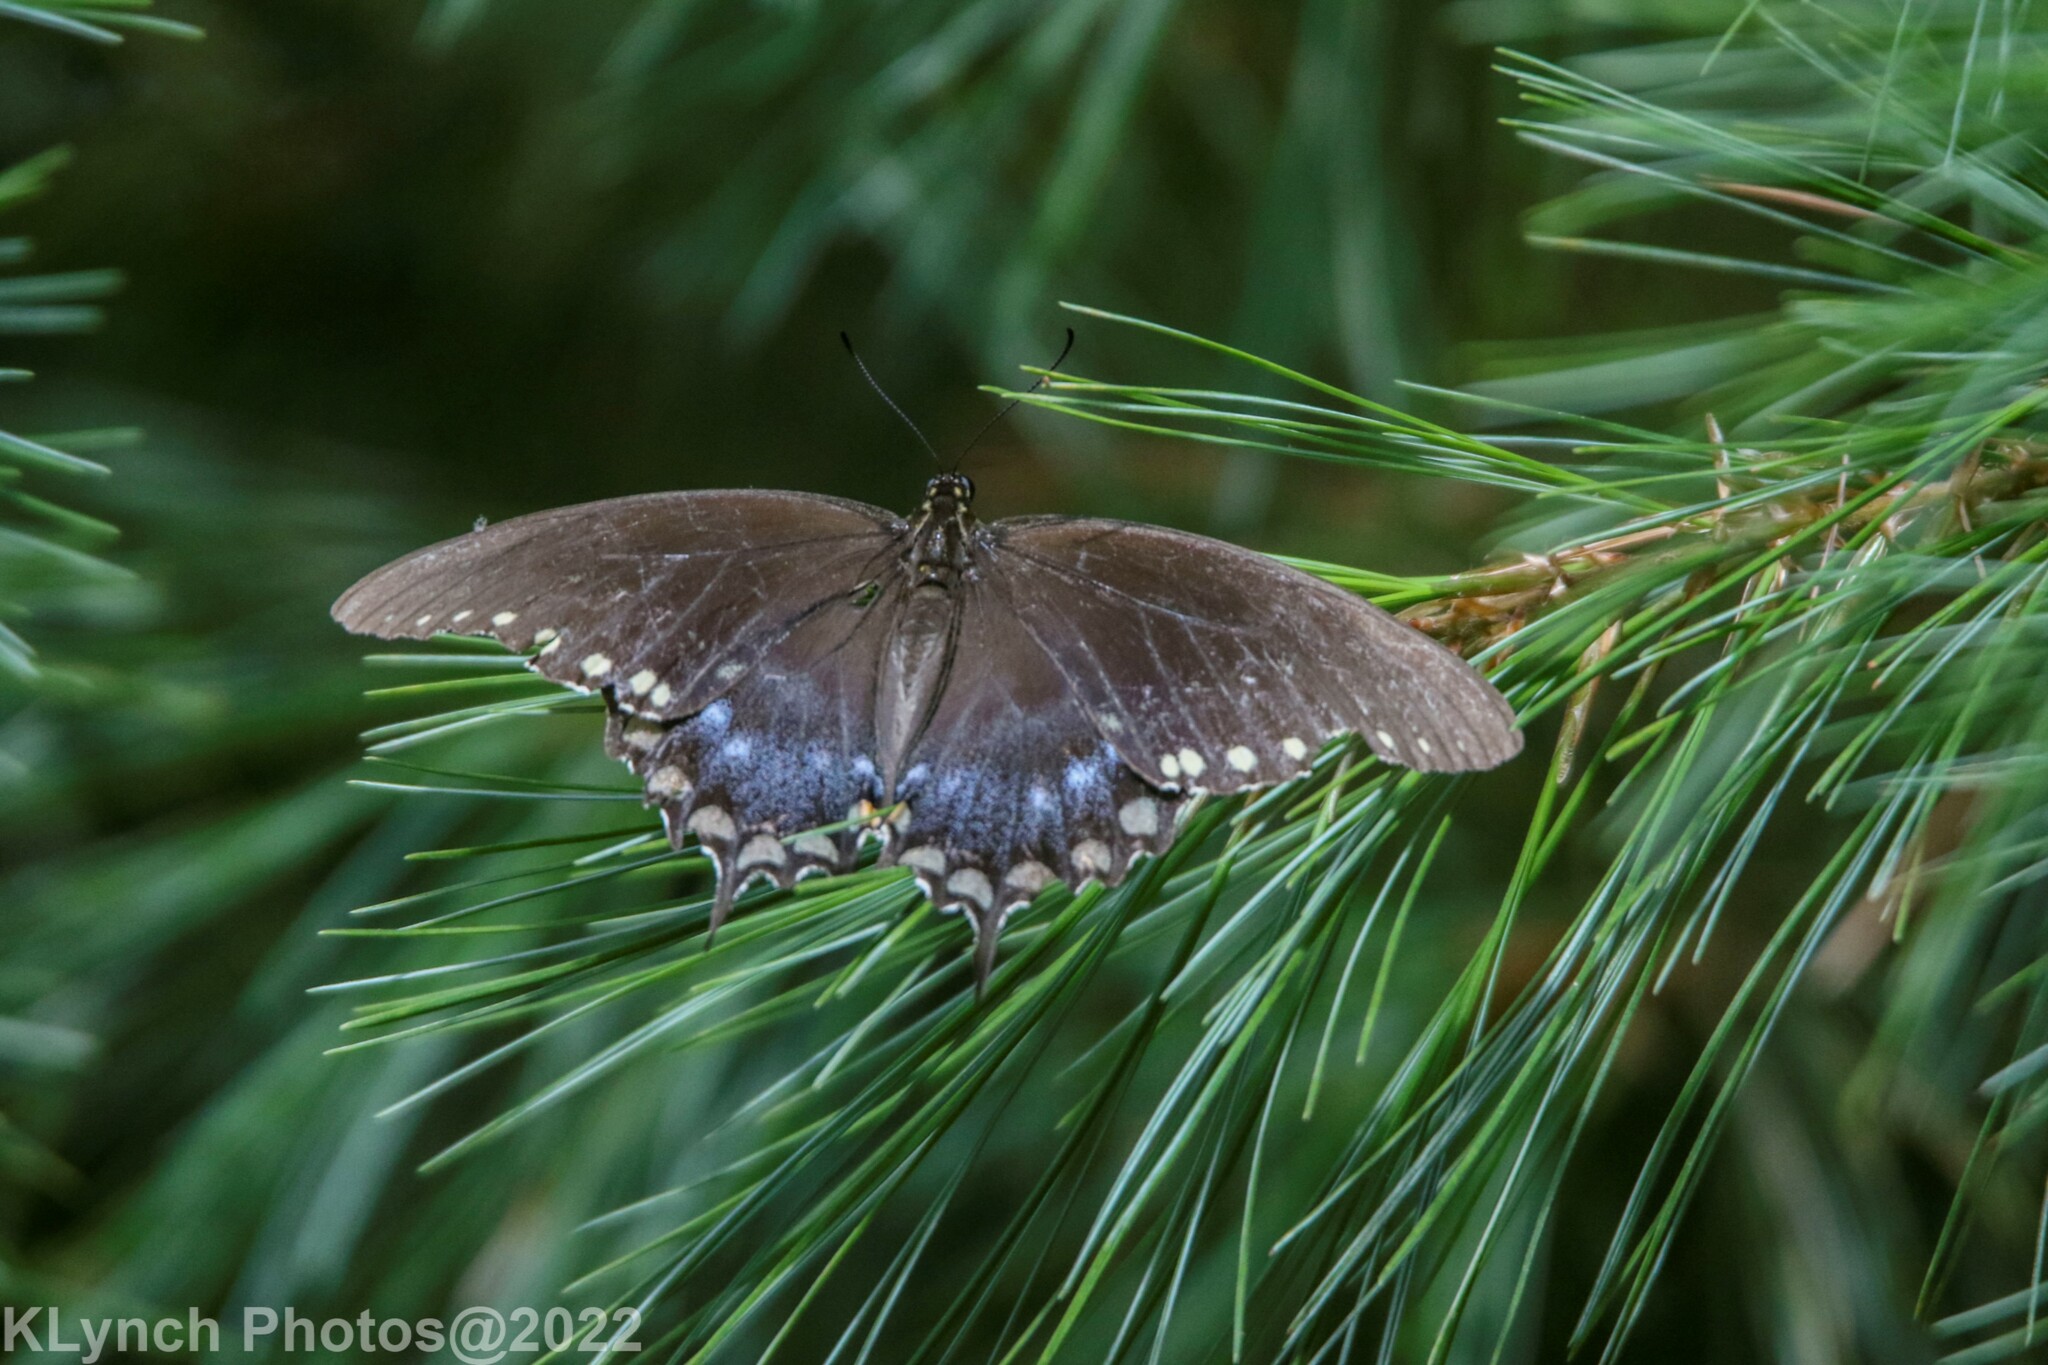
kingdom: Animalia
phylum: Arthropoda
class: Insecta
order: Lepidoptera
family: Papilionidae
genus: Papilio
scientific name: Papilio troilus
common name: Spicebush swallowtail
